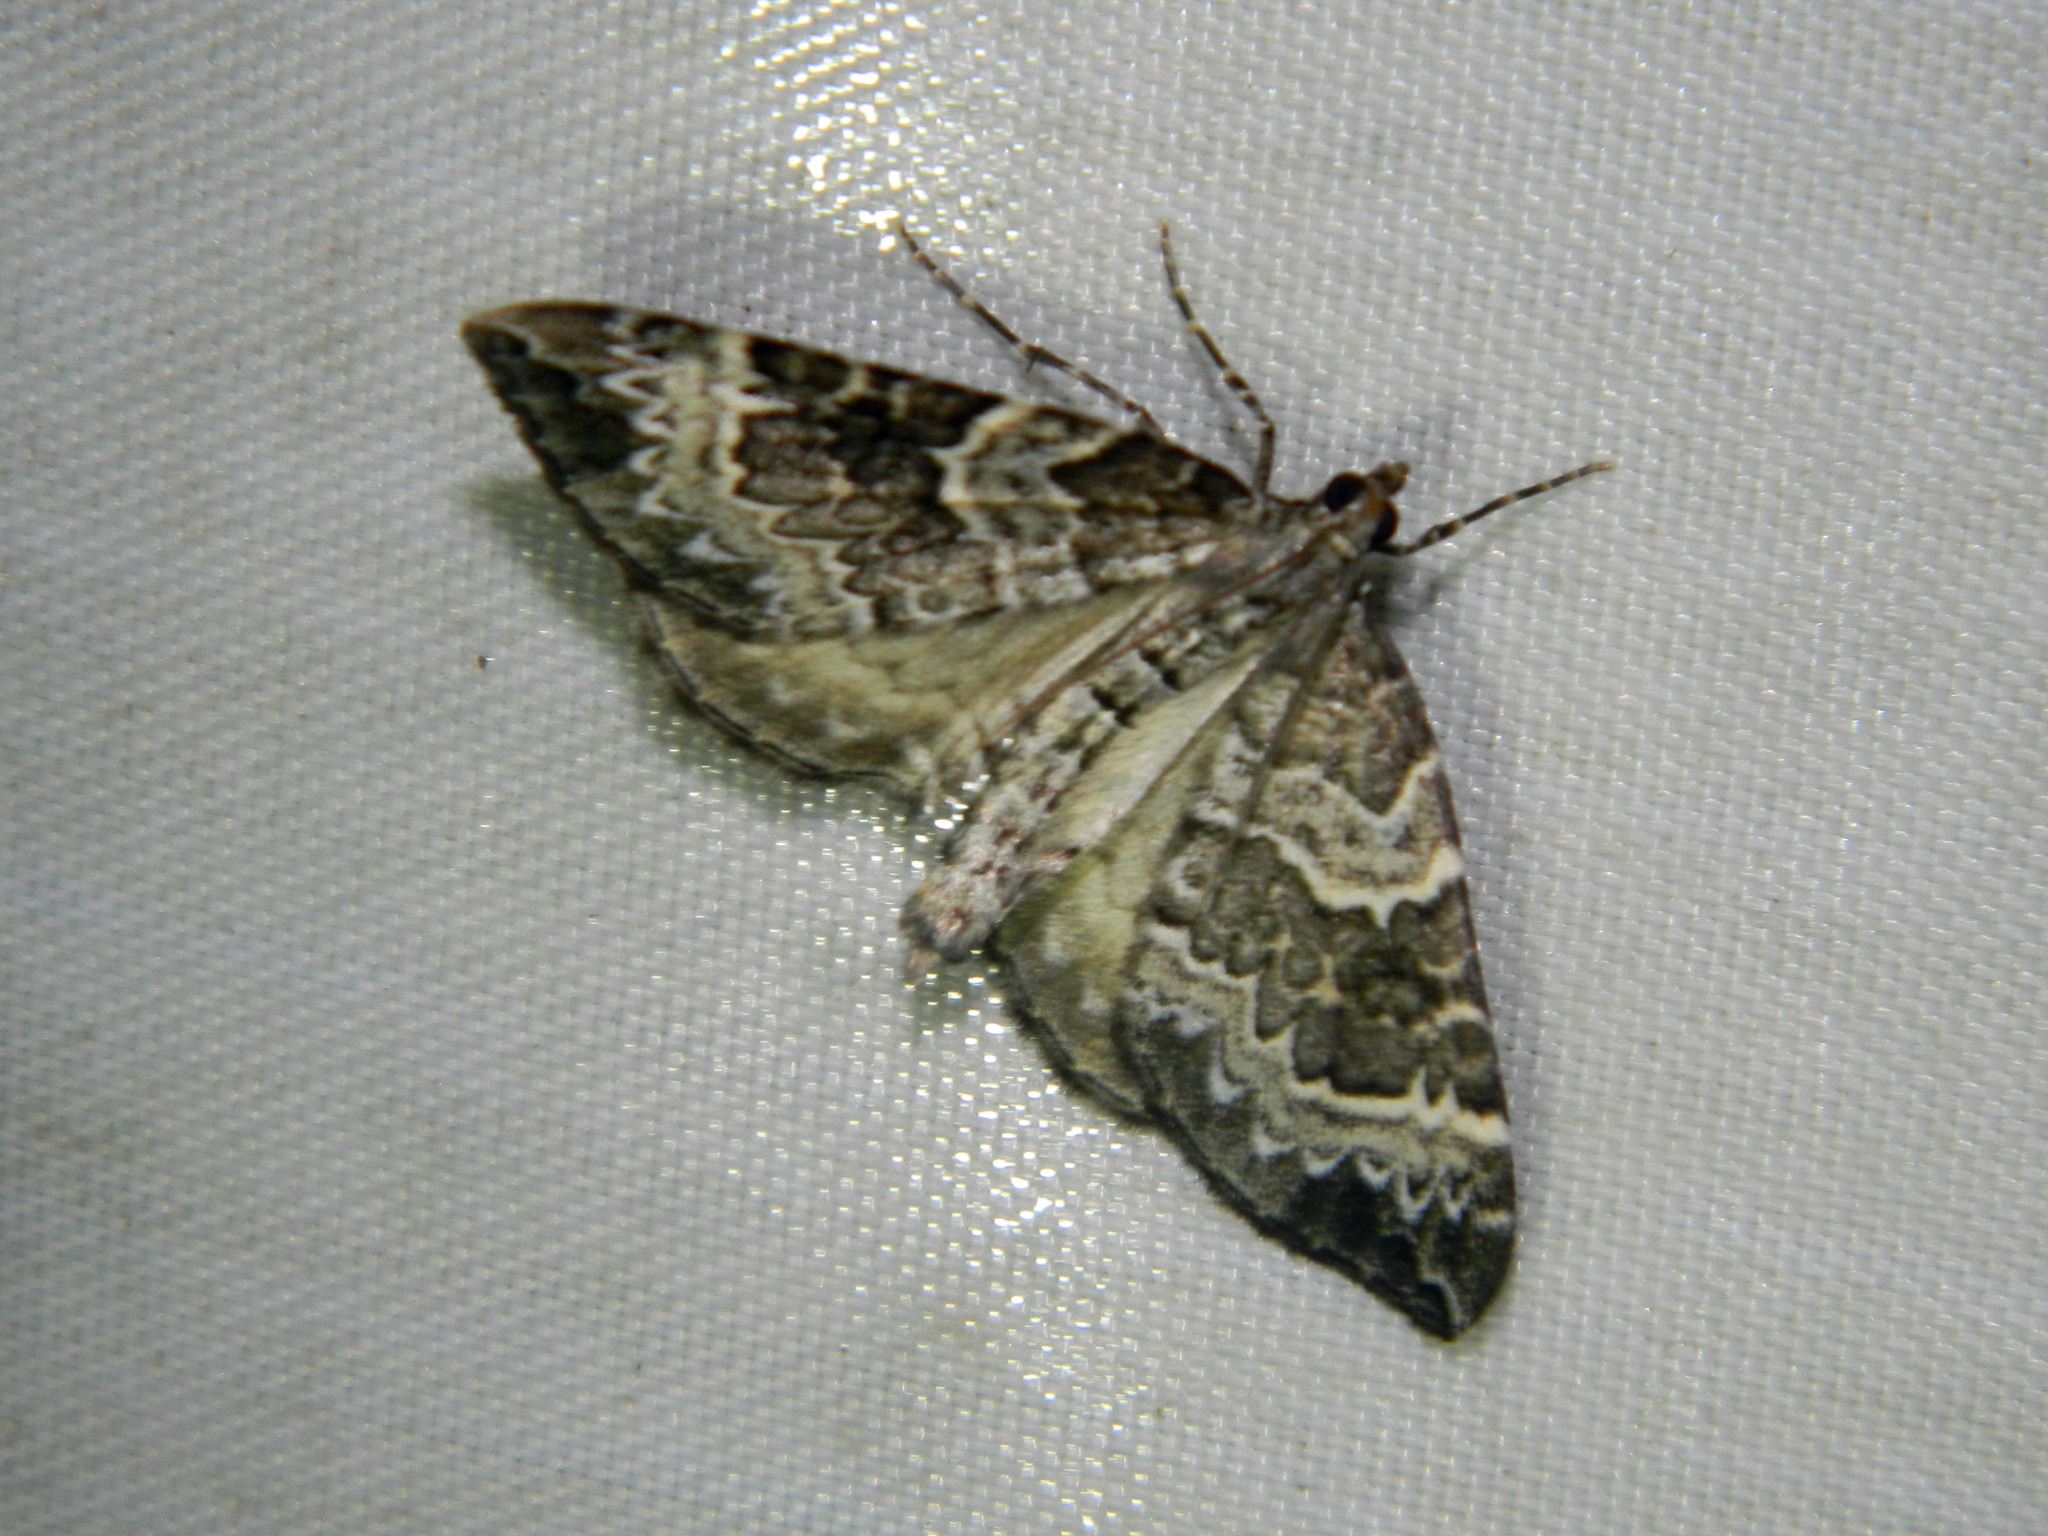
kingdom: Animalia
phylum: Arthropoda
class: Insecta
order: Lepidoptera
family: Geometridae
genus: Eulithis
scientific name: Eulithis explanata
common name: White eulithis
